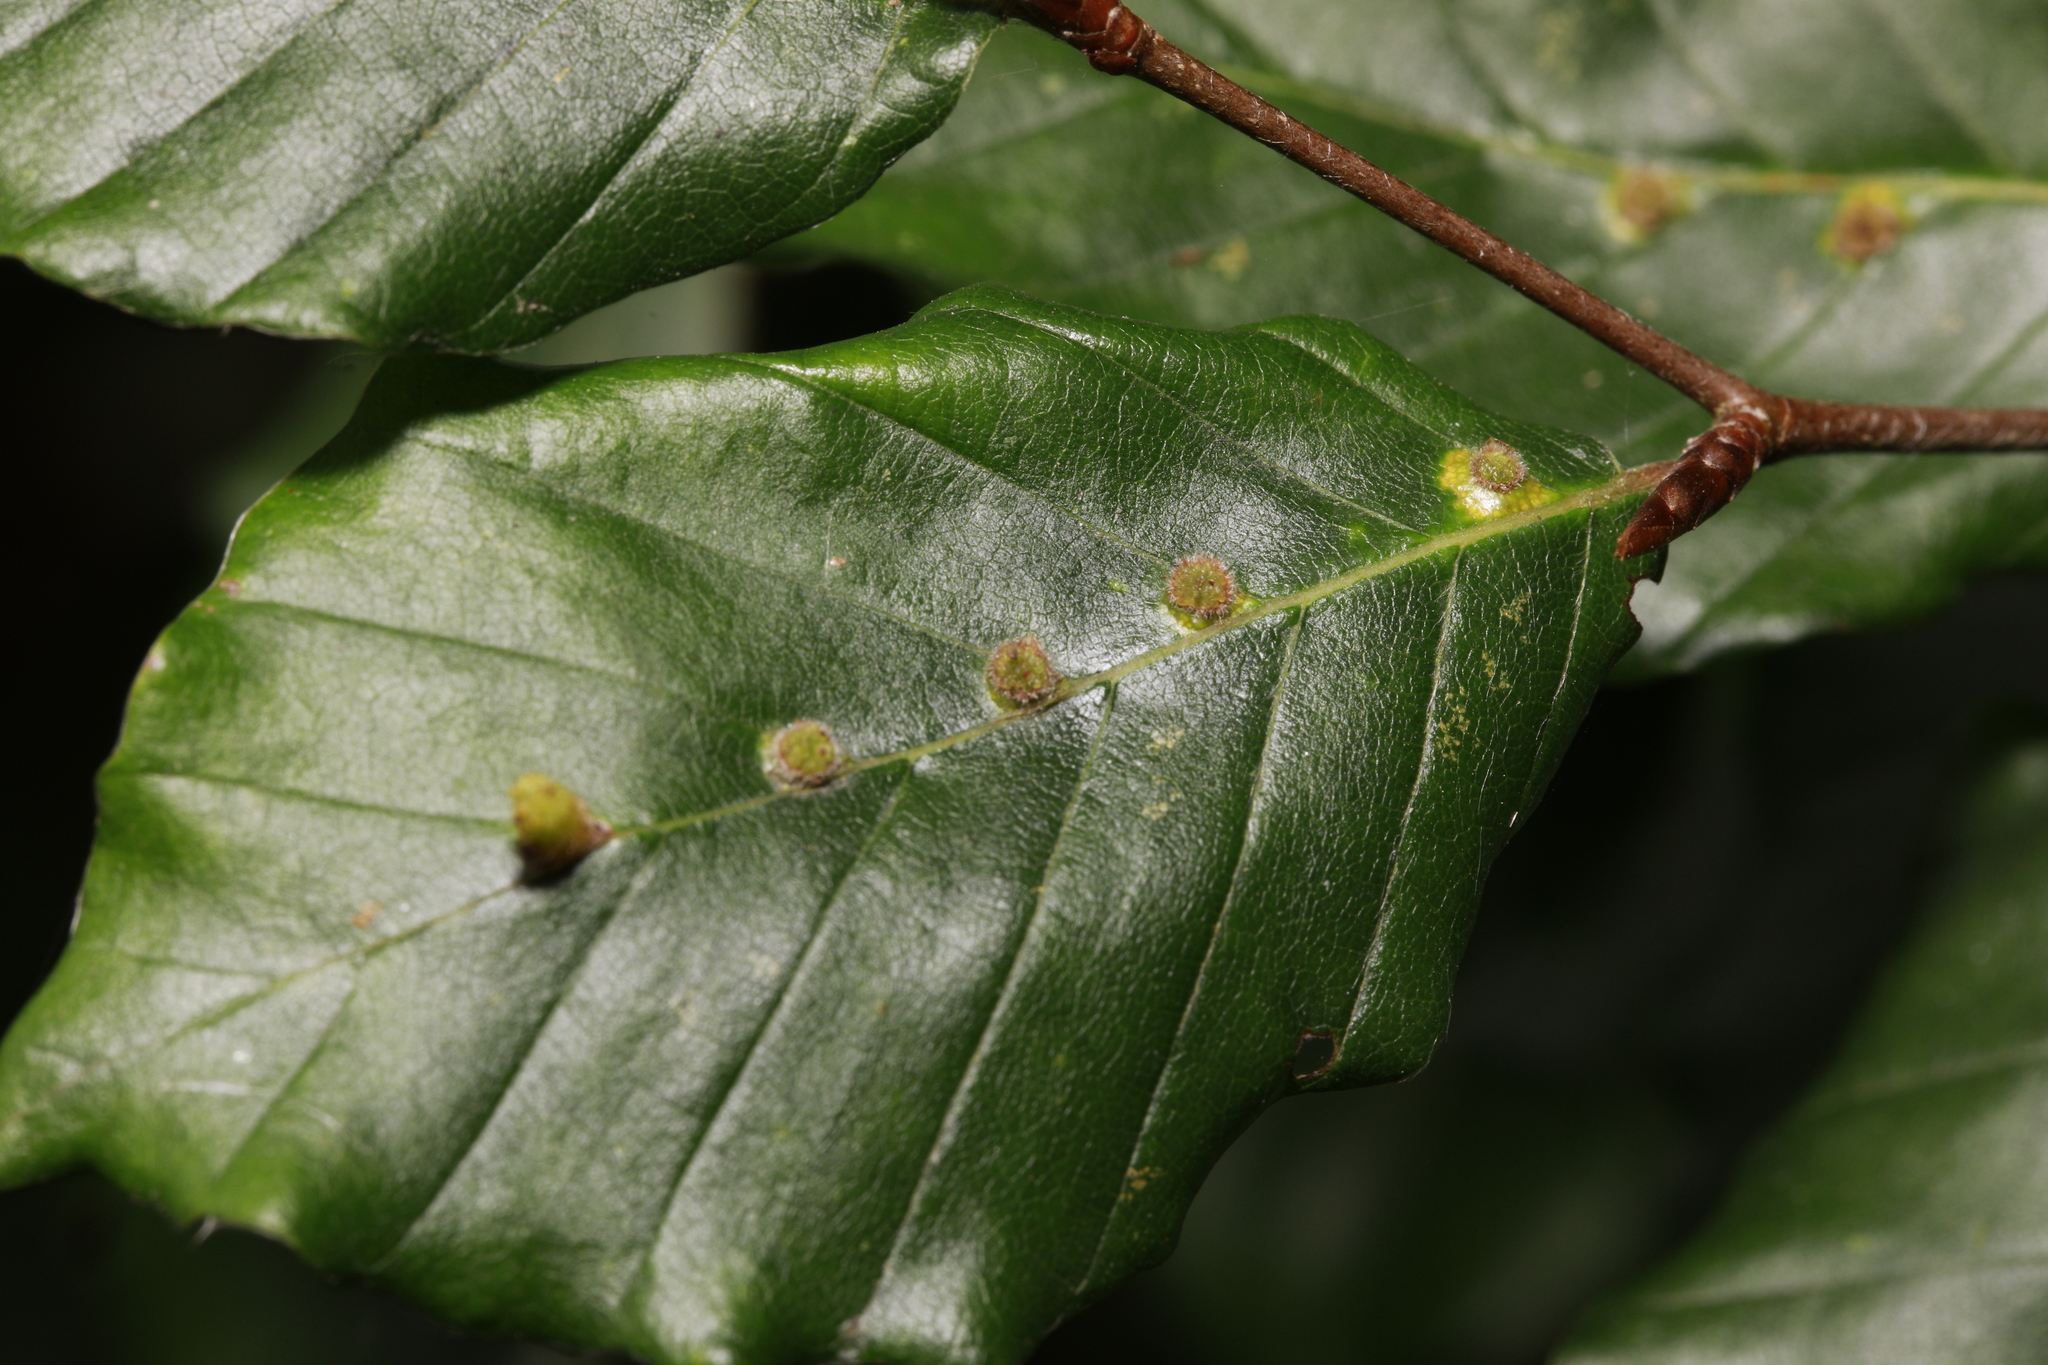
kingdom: Animalia
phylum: Arthropoda
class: Insecta
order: Diptera
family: Cecidomyiidae
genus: Hartigiola
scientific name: Hartigiola annulipes
